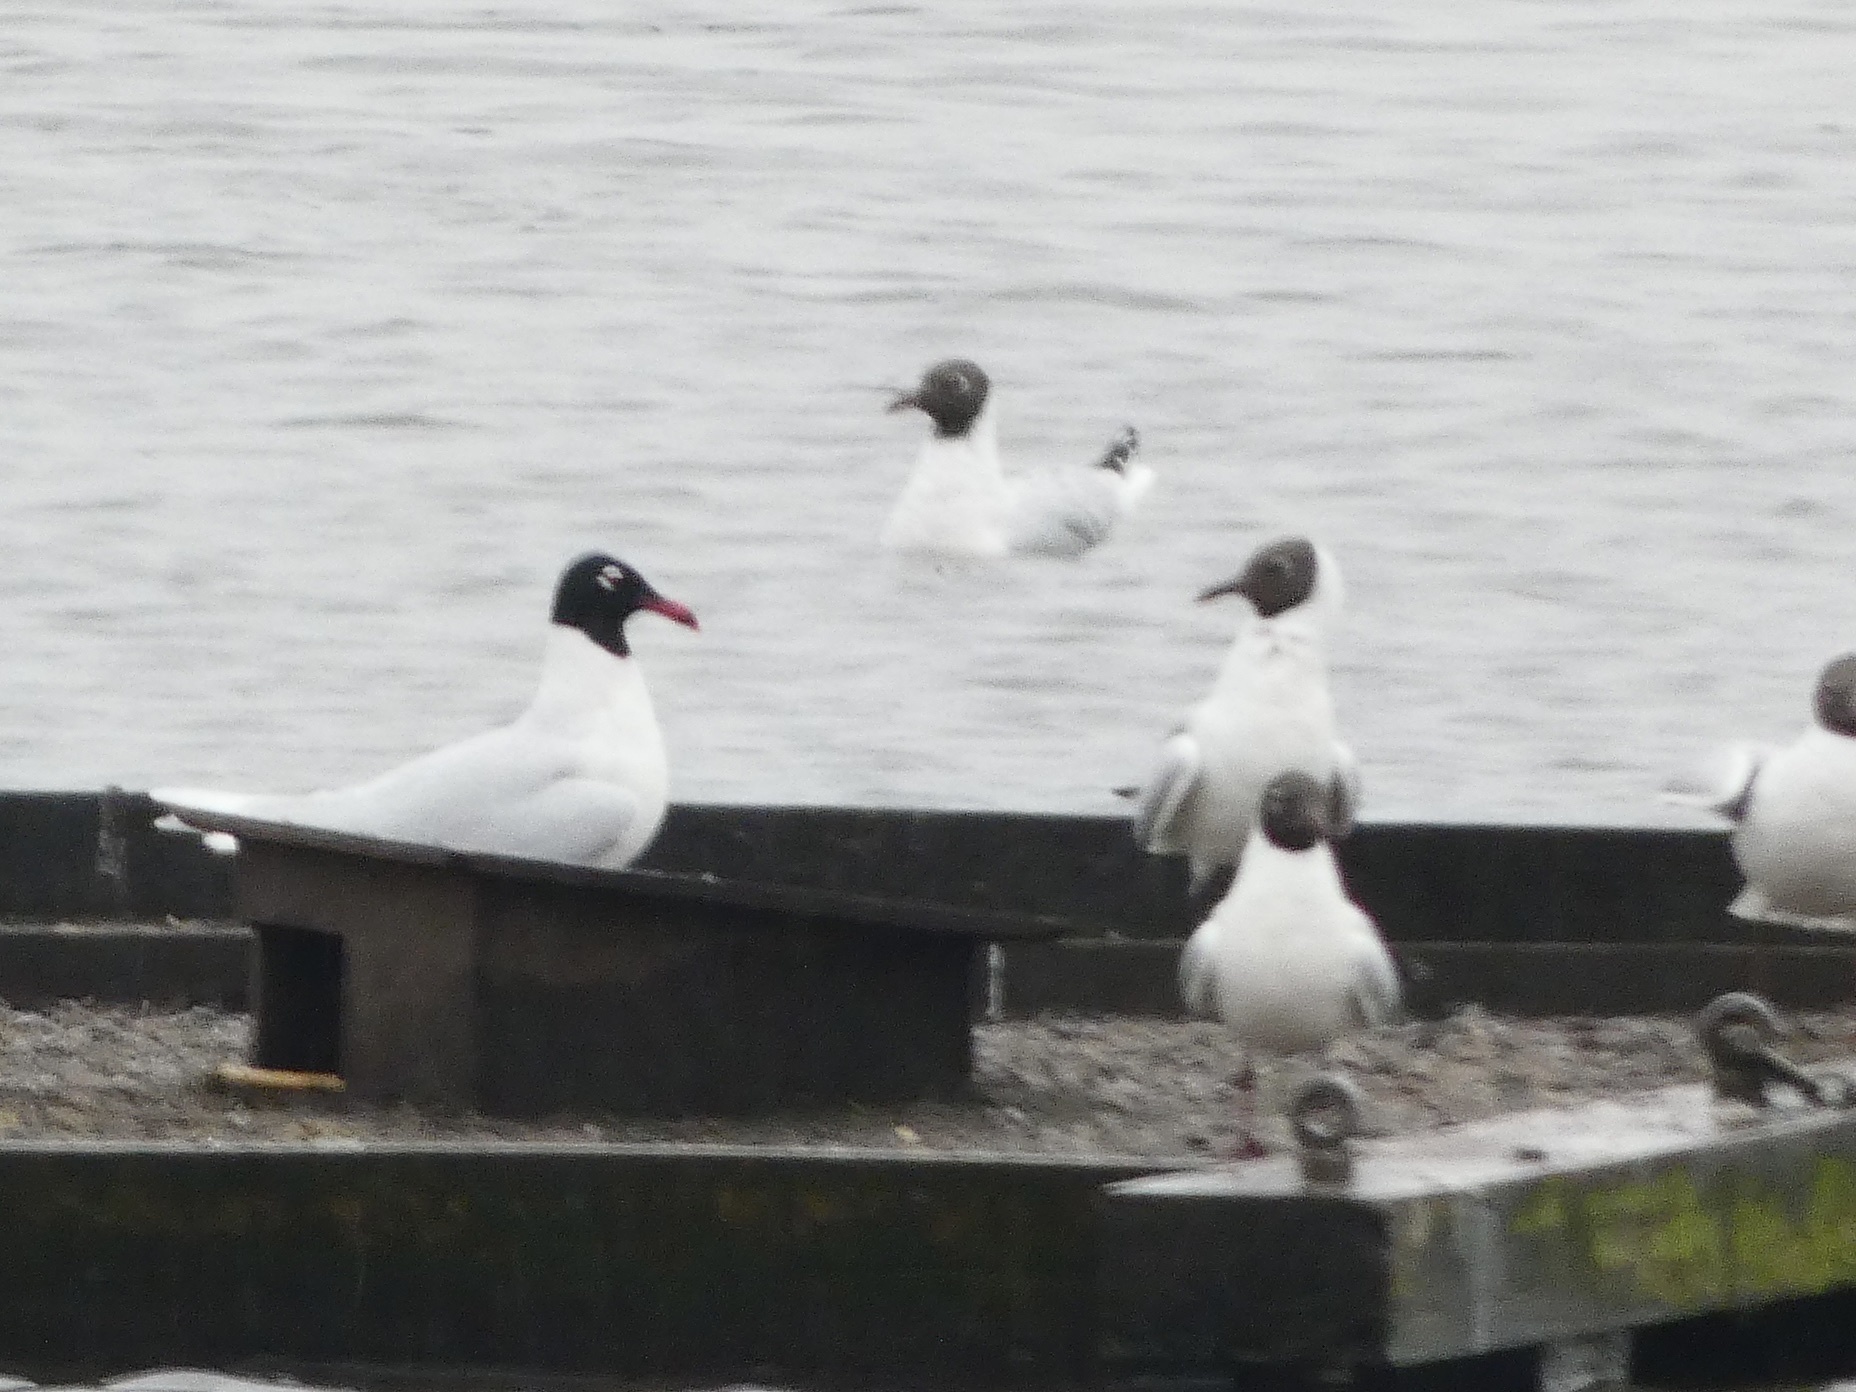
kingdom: Animalia
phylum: Chordata
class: Aves
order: Charadriiformes
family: Laridae
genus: Ichthyaetus
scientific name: Ichthyaetus melanocephalus
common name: Mediterranean gull
